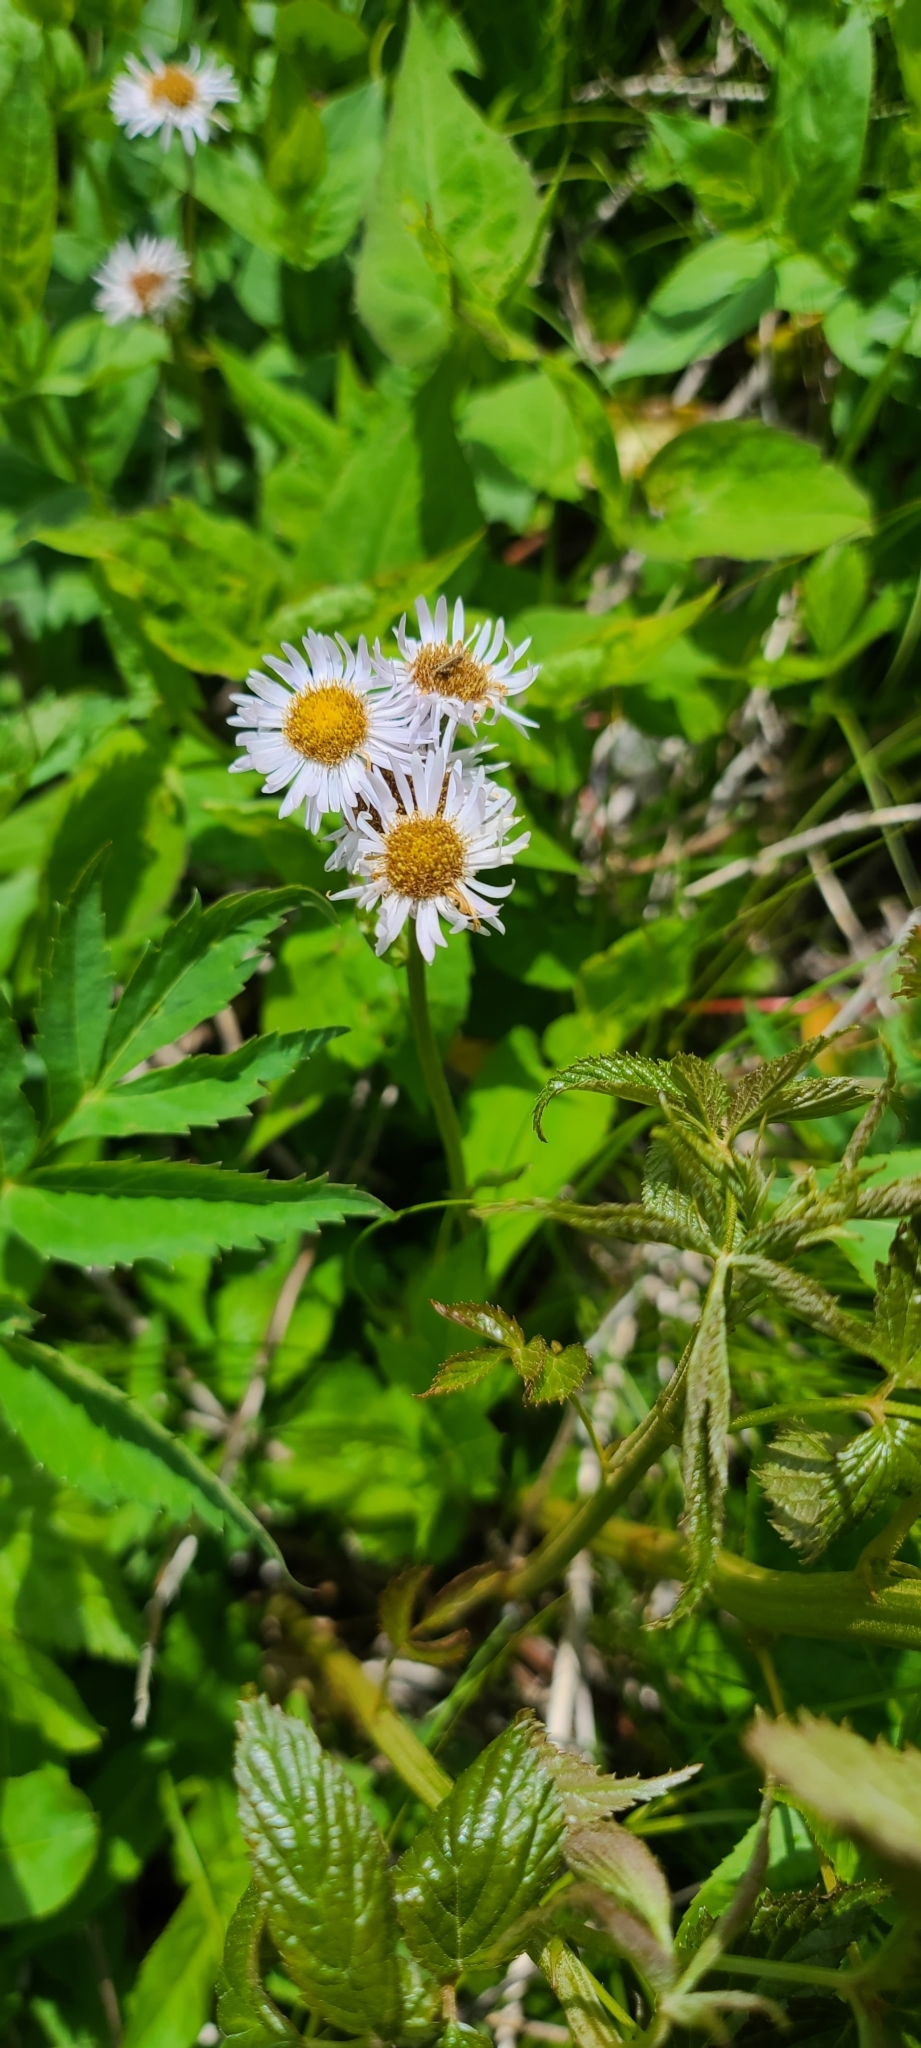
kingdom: Plantae
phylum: Tracheophyta
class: Magnoliopsida
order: Asterales
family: Asteraceae
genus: Erigeron
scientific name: Erigeron pulchellus
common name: Hairy fleabane
